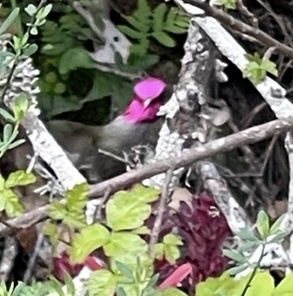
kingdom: Animalia
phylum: Chordata
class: Aves
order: Apodiformes
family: Trochilidae
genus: Calypte
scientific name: Calypte anna
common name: Anna's hummingbird
